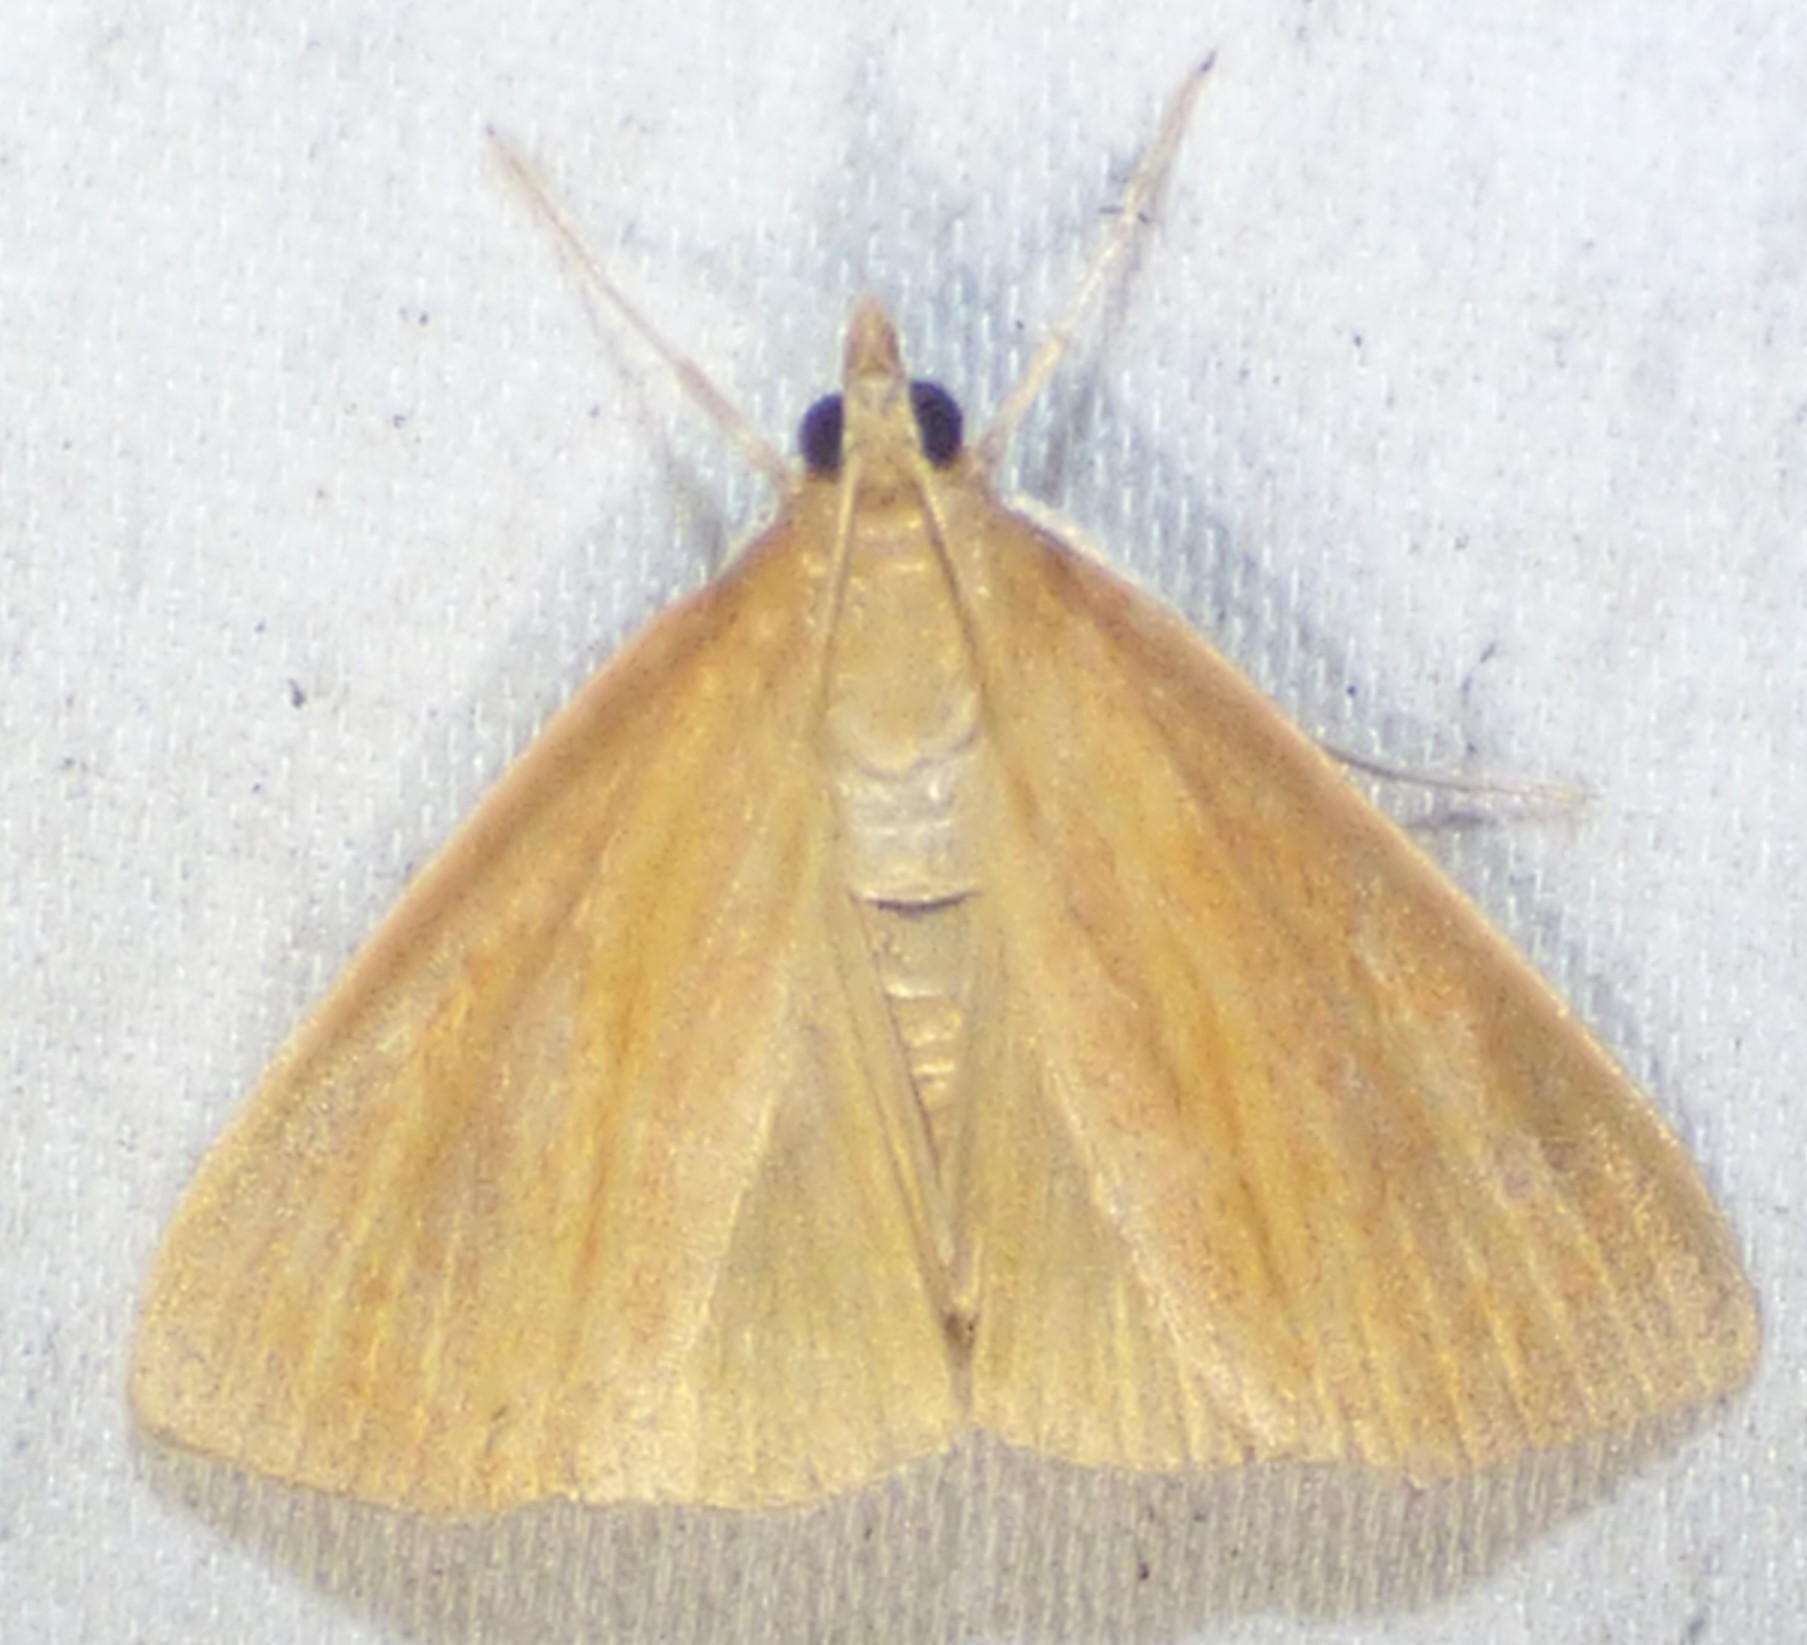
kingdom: Animalia
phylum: Arthropoda
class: Insecta
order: Lepidoptera
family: Crambidae
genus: Nascia
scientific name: Nascia acutellus
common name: Streaked orange moth
